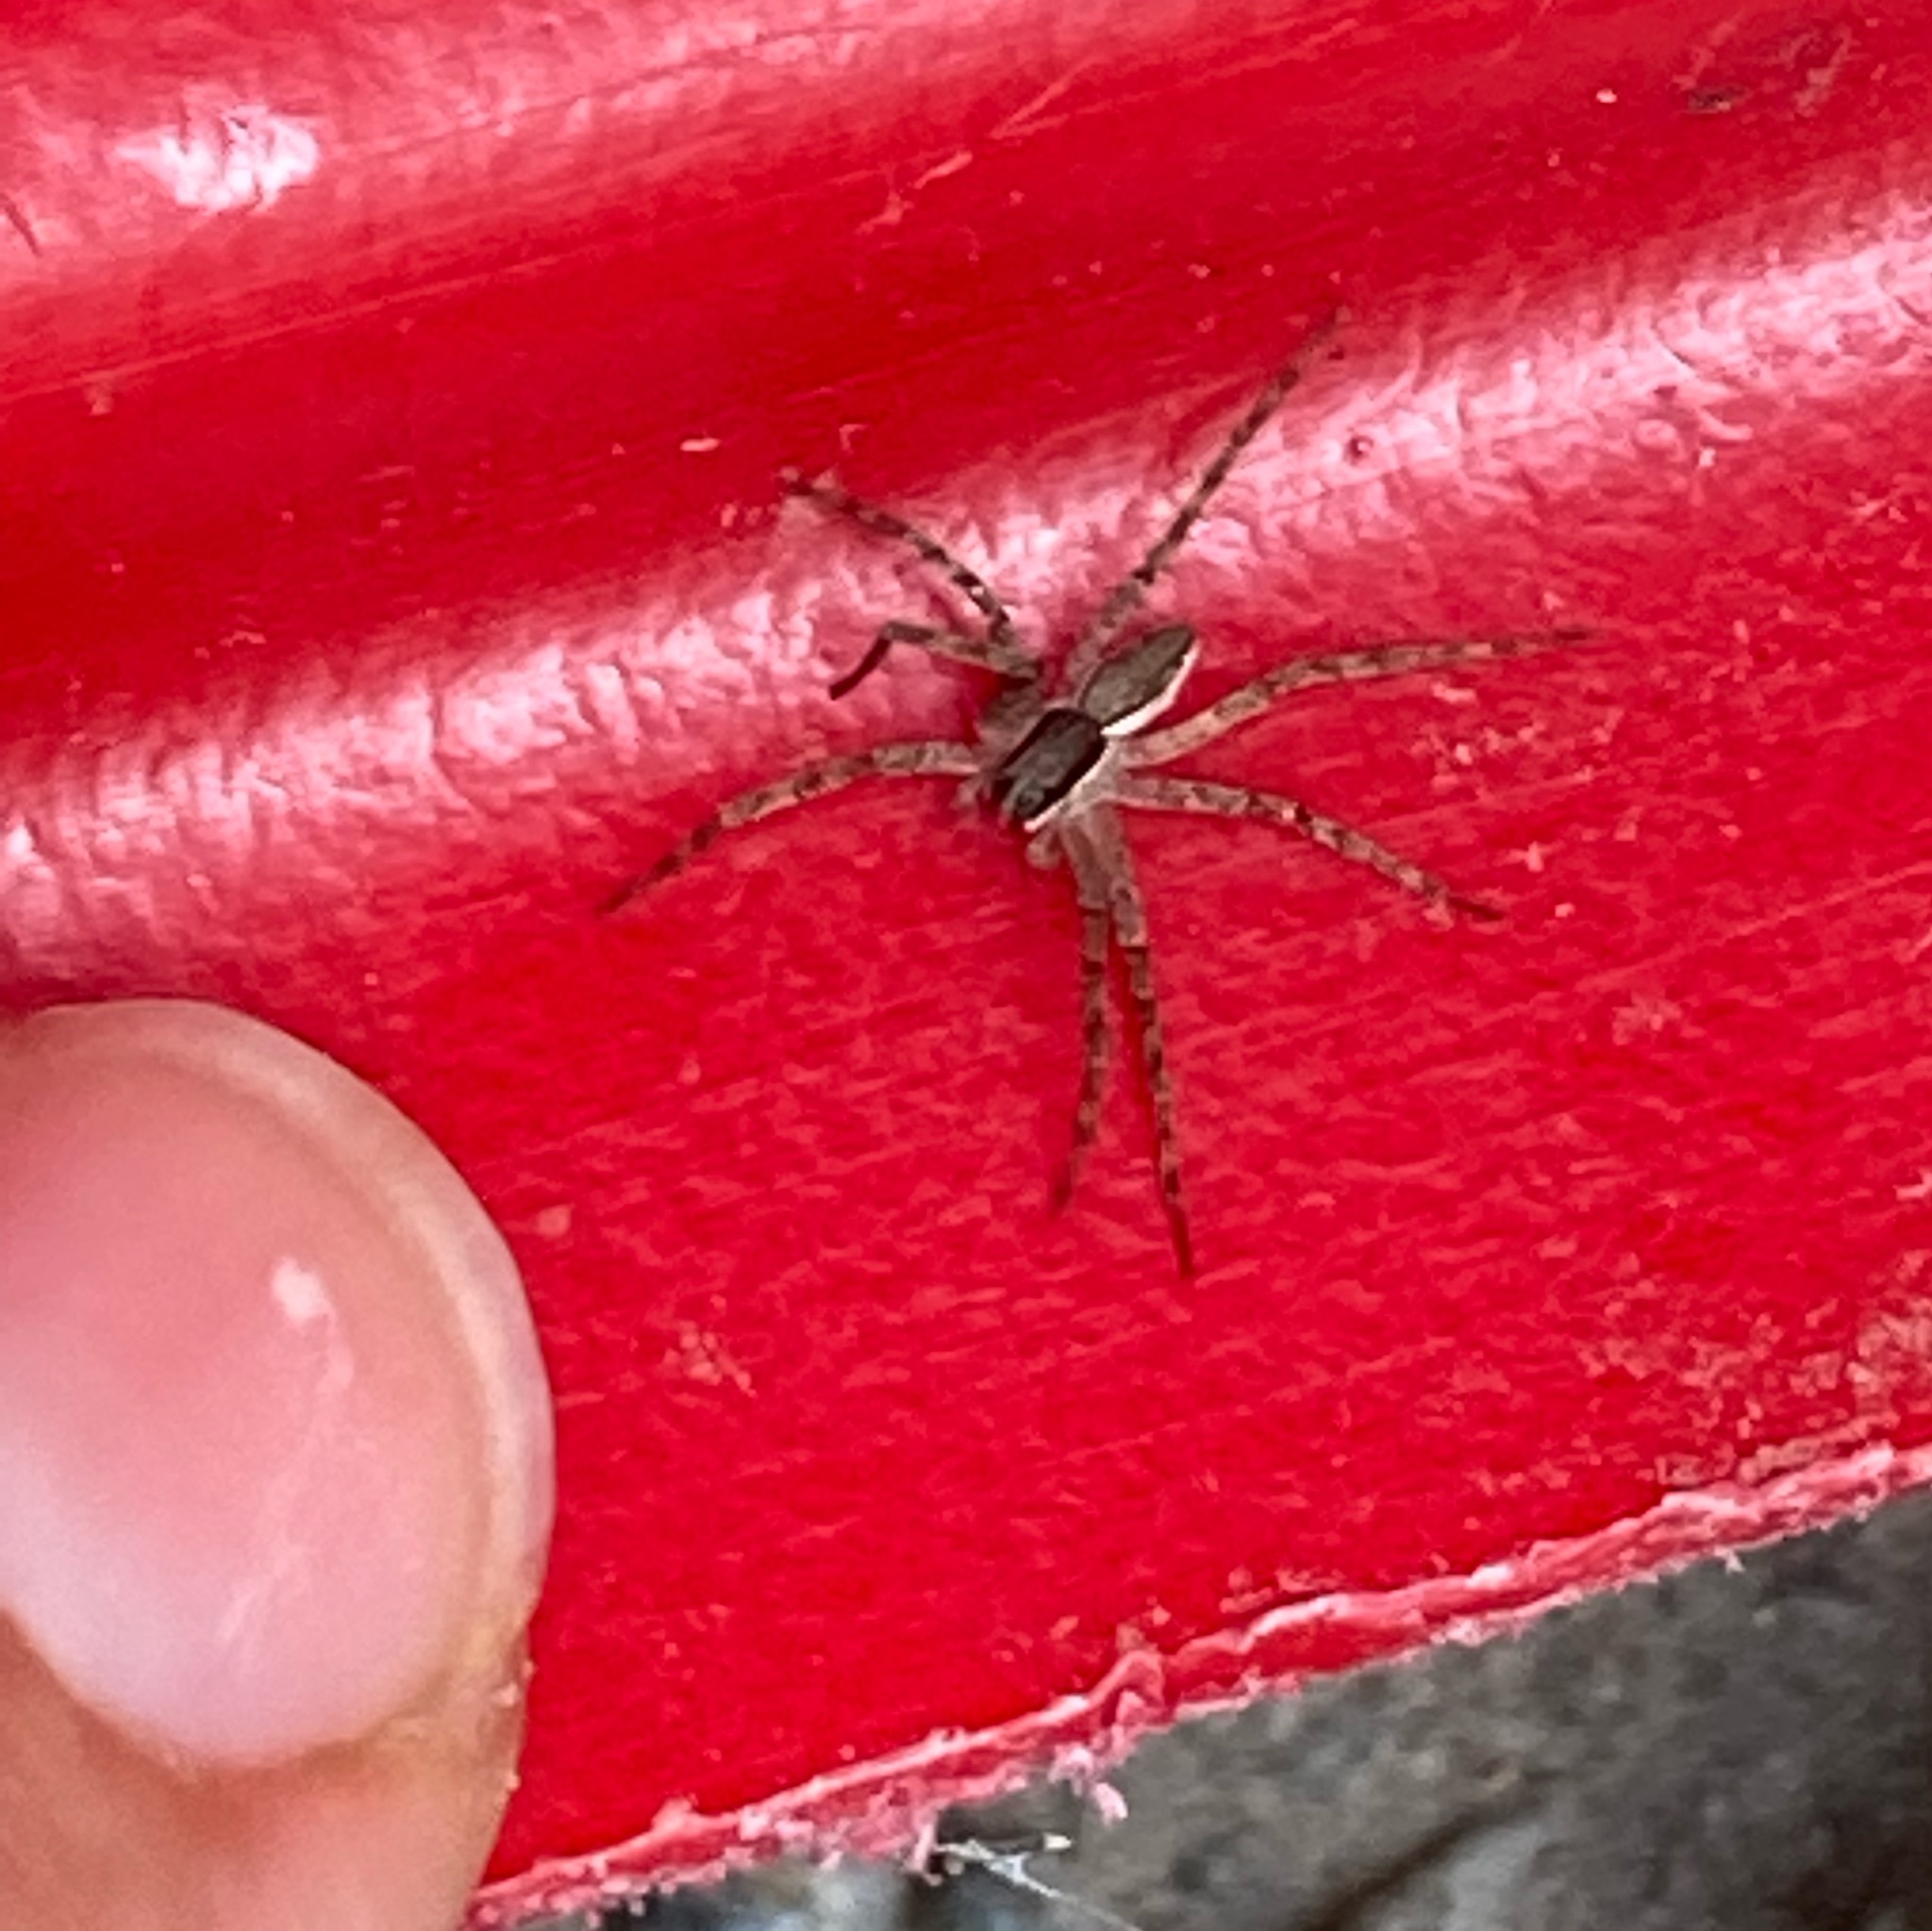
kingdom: Animalia
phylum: Arthropoda
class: Arachnida
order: Araneae
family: Pisauridae
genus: Dolomedes
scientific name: Dolomedes minor
